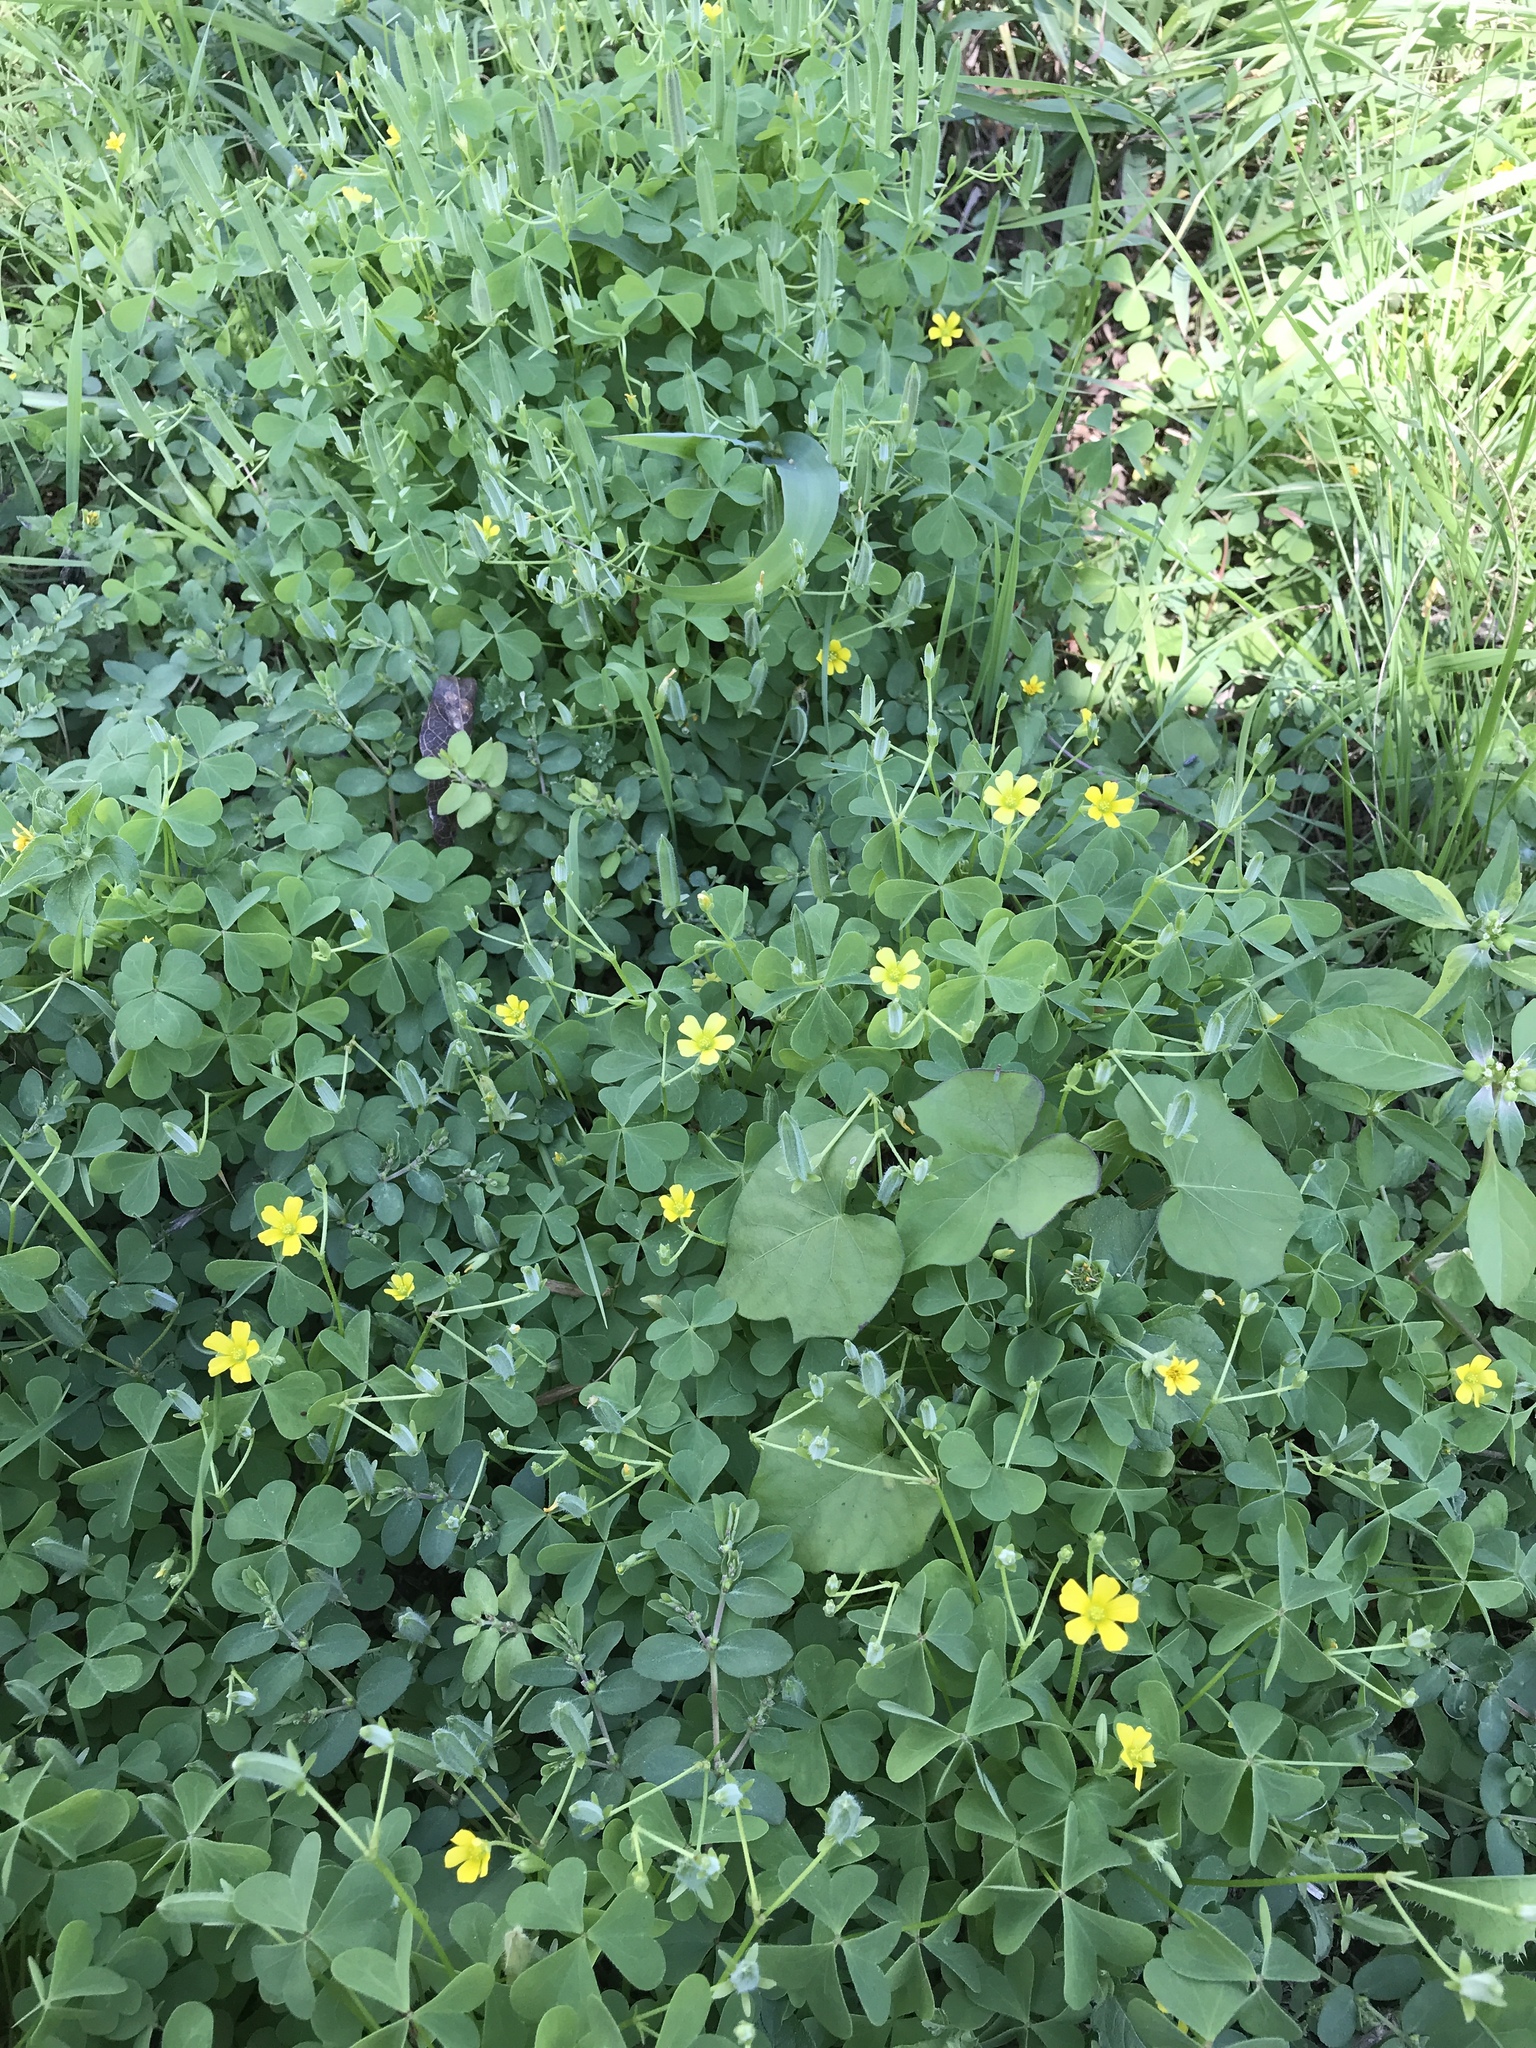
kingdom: Plantae
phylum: Tracheophyta
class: Magnoliopsida
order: Oxalidales
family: Oxalidaceae
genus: Oxalis
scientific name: Oxalis dillenii
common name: Sussex yellow-sorrel
